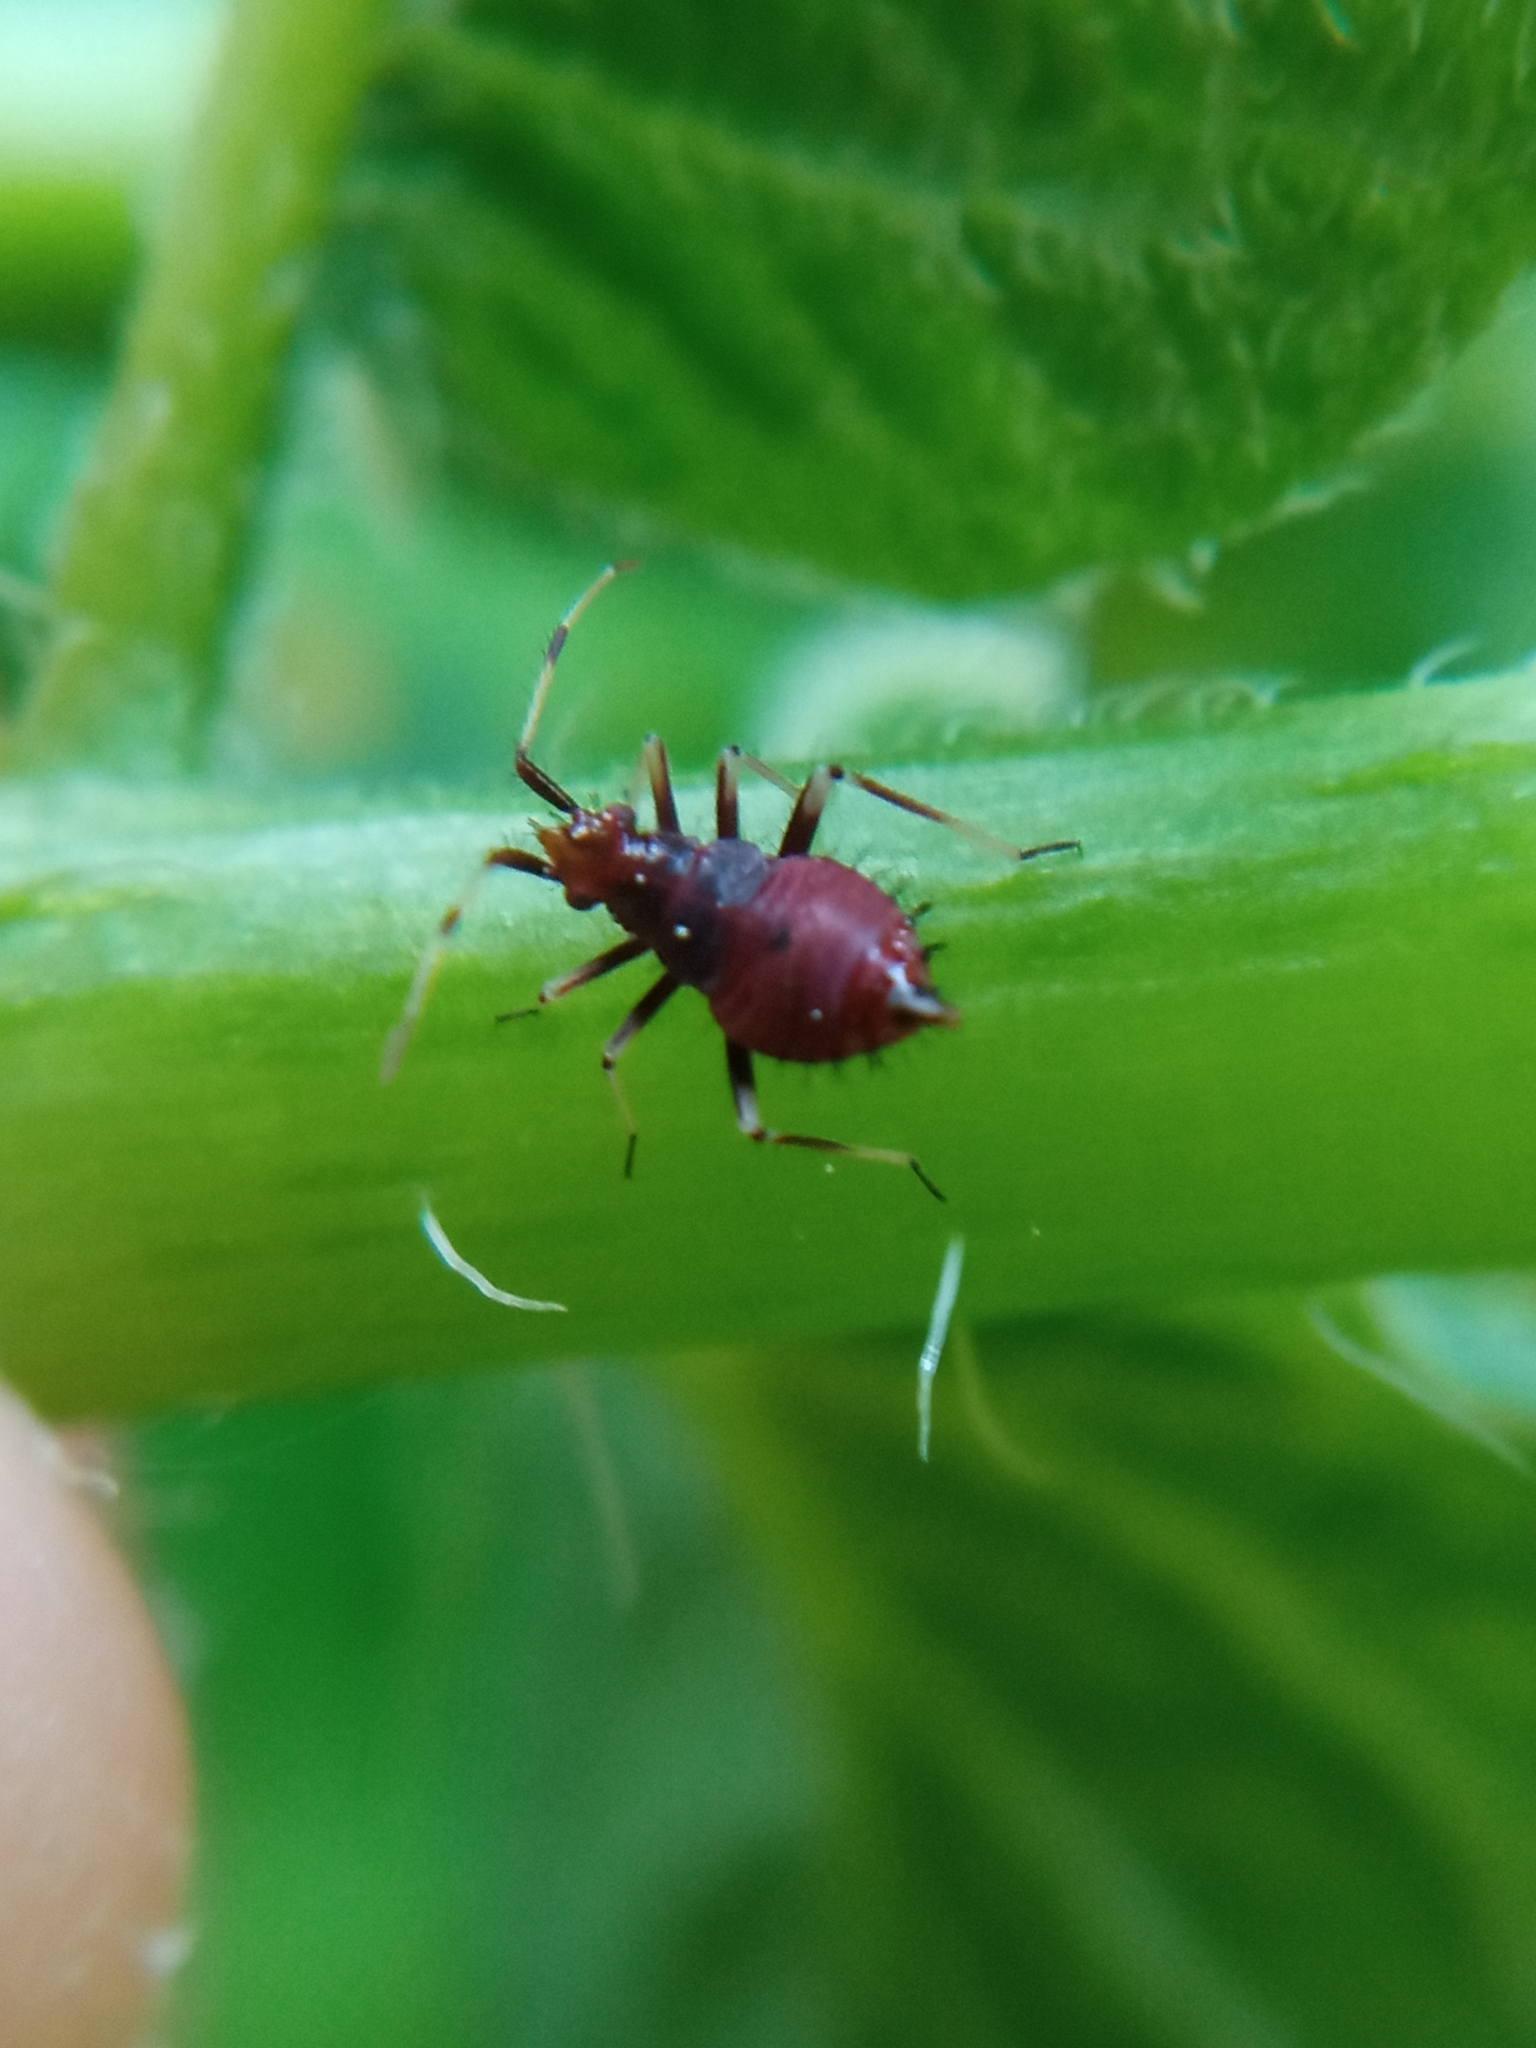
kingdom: Animalia
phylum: Arthropoda
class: Insecta
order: Hemiptera
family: Miridae
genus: Deraeocoris
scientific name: Deraeocoris ruber
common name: Plant bug
